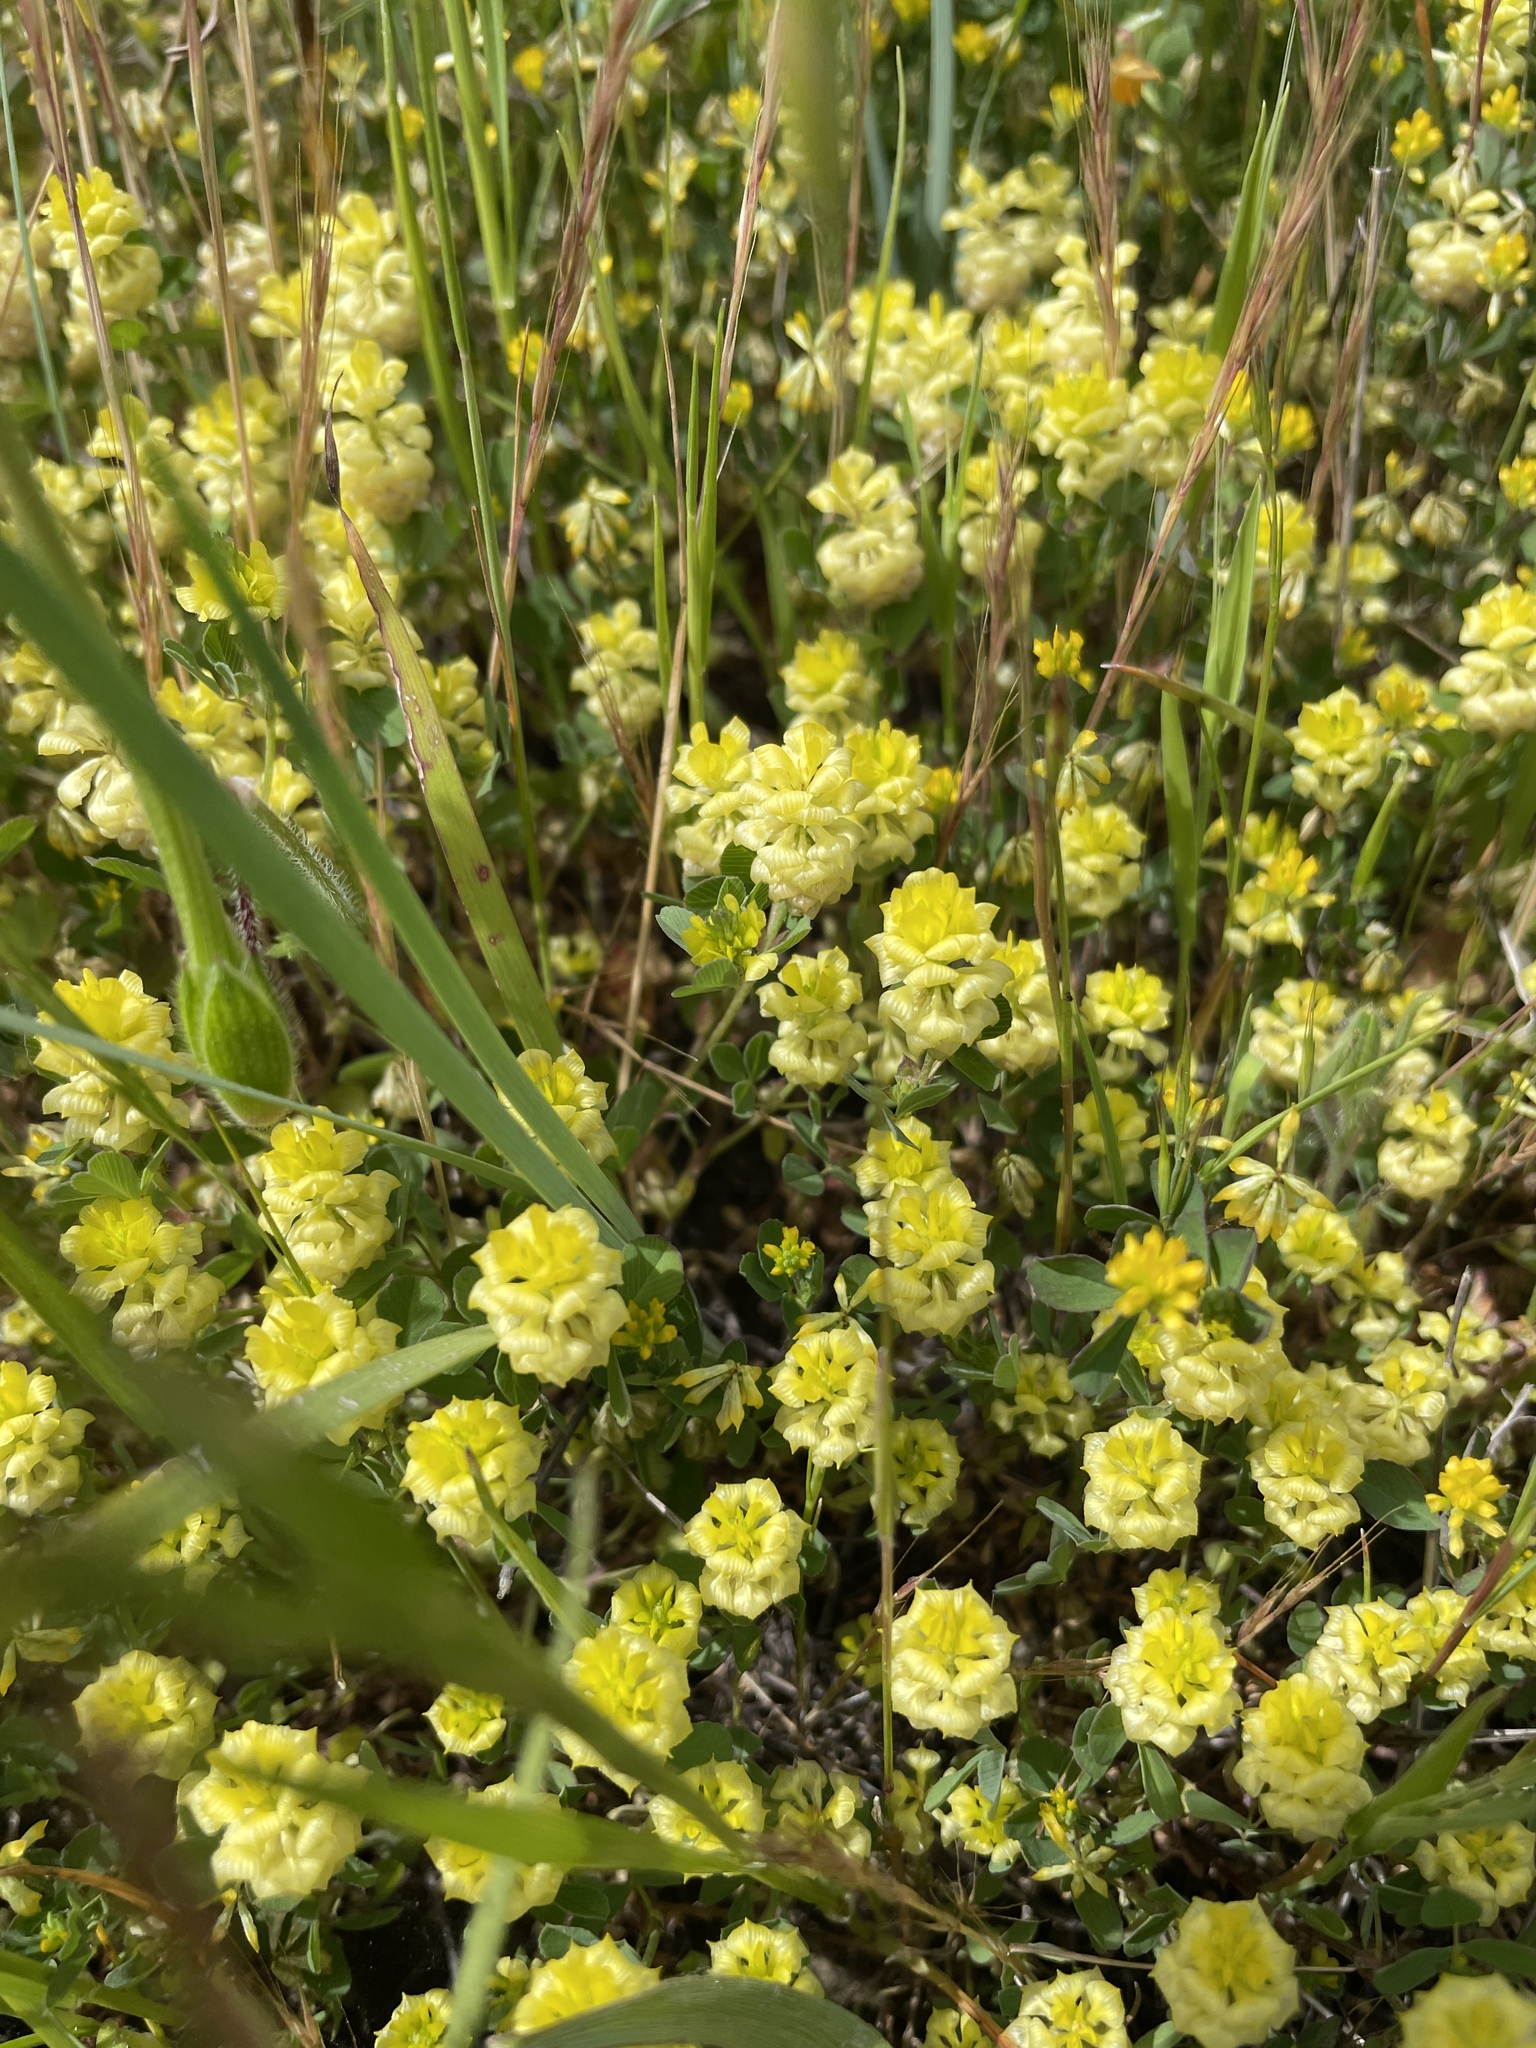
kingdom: Plantae
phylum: Tracheophyta
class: Magnoliopsida
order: Fabales
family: Fabaceae
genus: Trifolium
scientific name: Trifolium campestre
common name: Field clover
